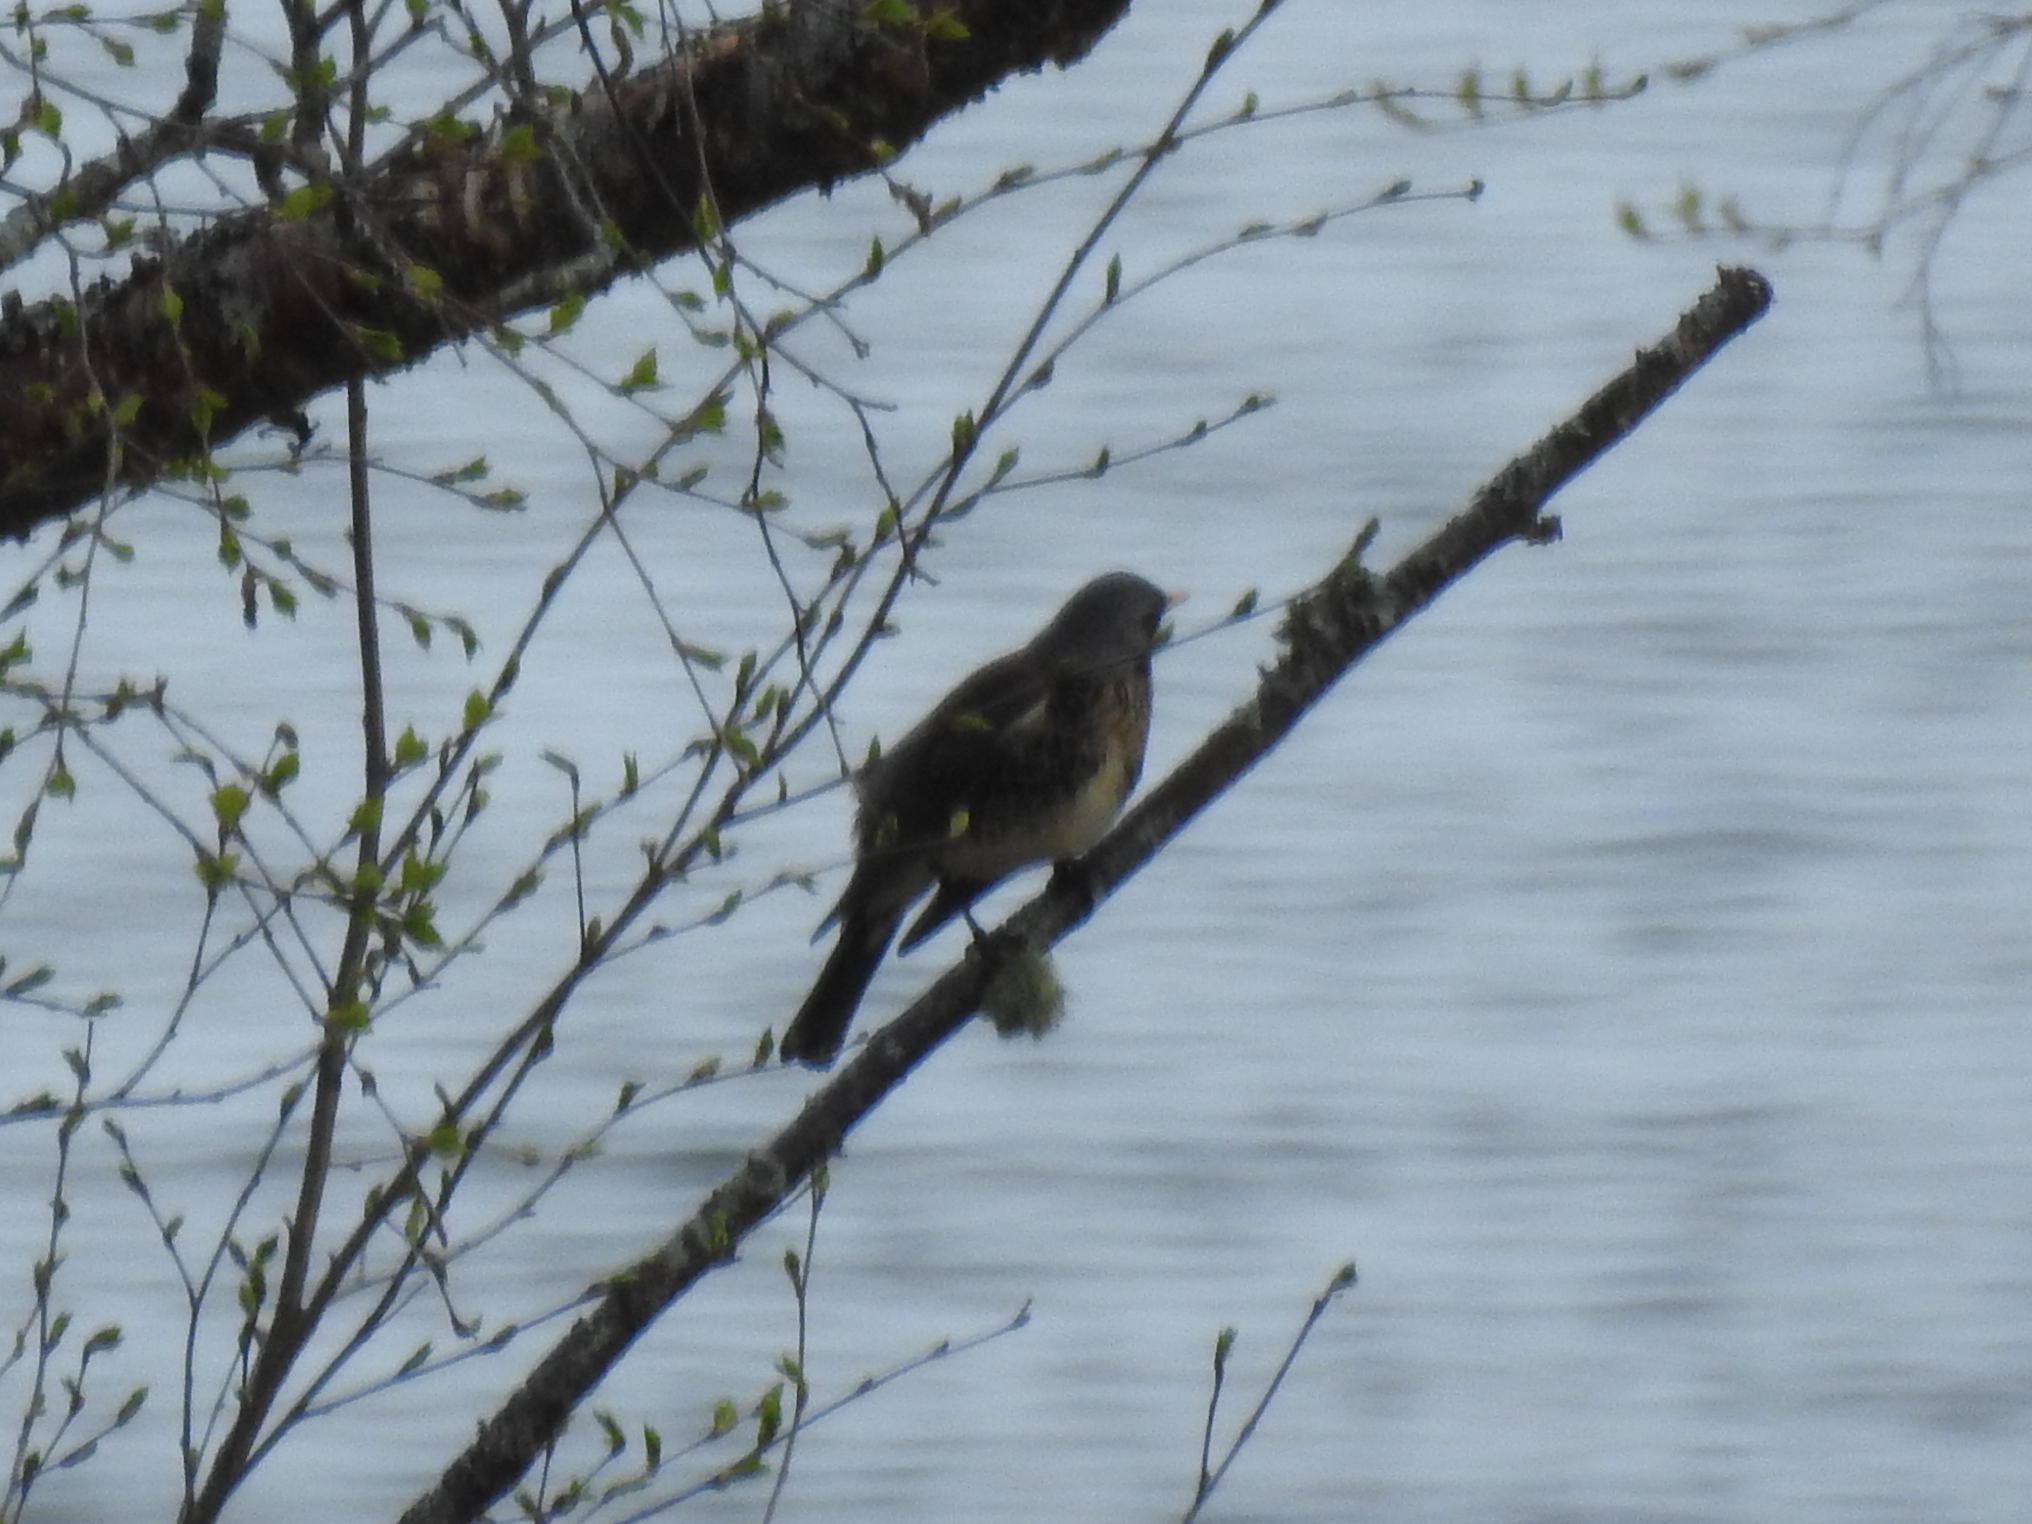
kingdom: Animalia
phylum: Chordata
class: Aves
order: Passeriformes
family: Turdidae
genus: Turdus
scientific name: Turdus pilaris
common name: Fieldfare
